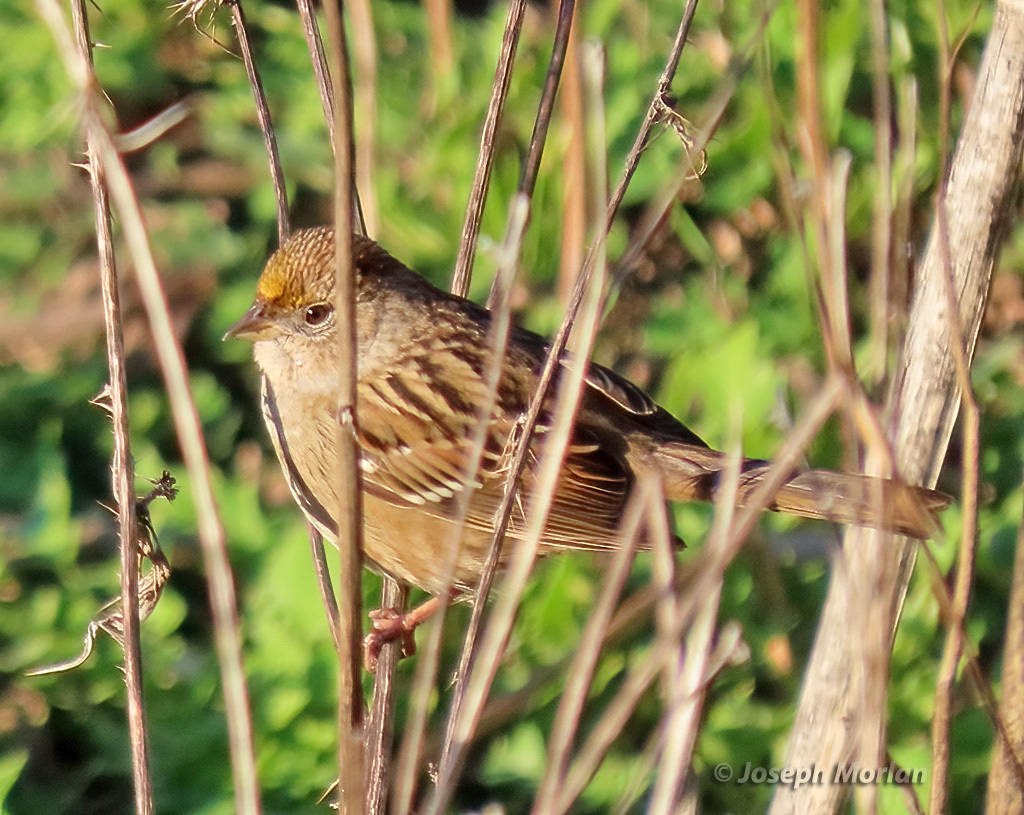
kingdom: Animalia
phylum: Chordata
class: Aves
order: Passeriformes
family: Passerellidae
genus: Zonotrichia
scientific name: Zonotrichia atricapilla
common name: Golden-crowned sparrow
